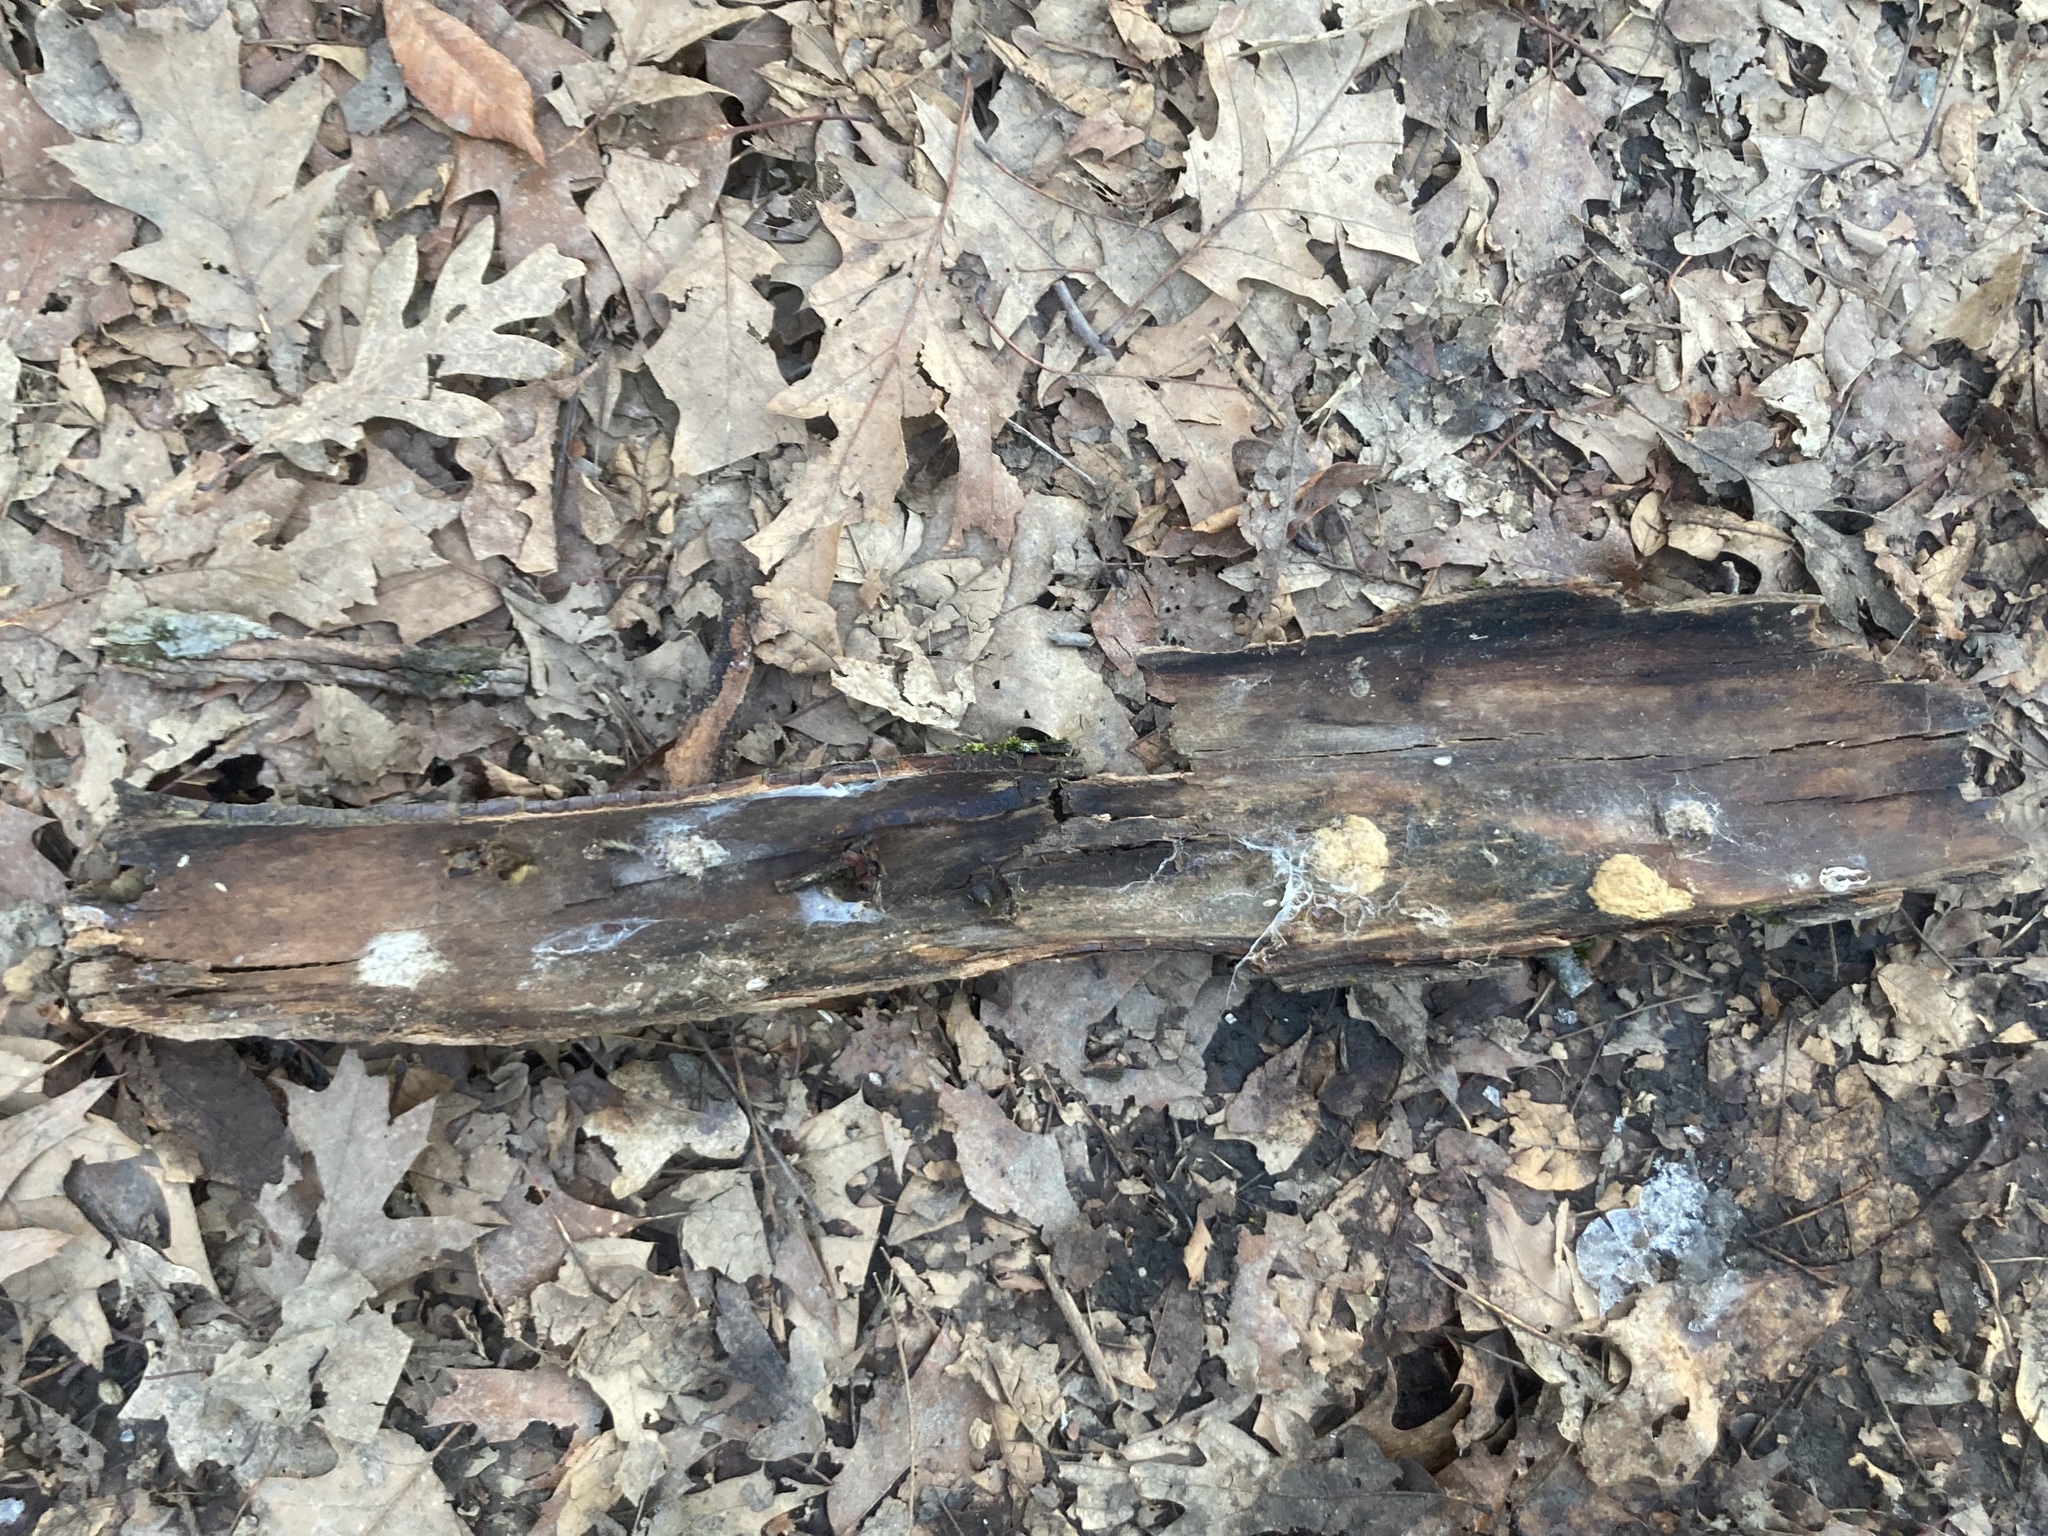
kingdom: Animalia
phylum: Arthropoda
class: Insecta
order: Lepidoptera
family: Erebidae
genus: Lymantria
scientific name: Lymantria dispar
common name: Gypsy moth
